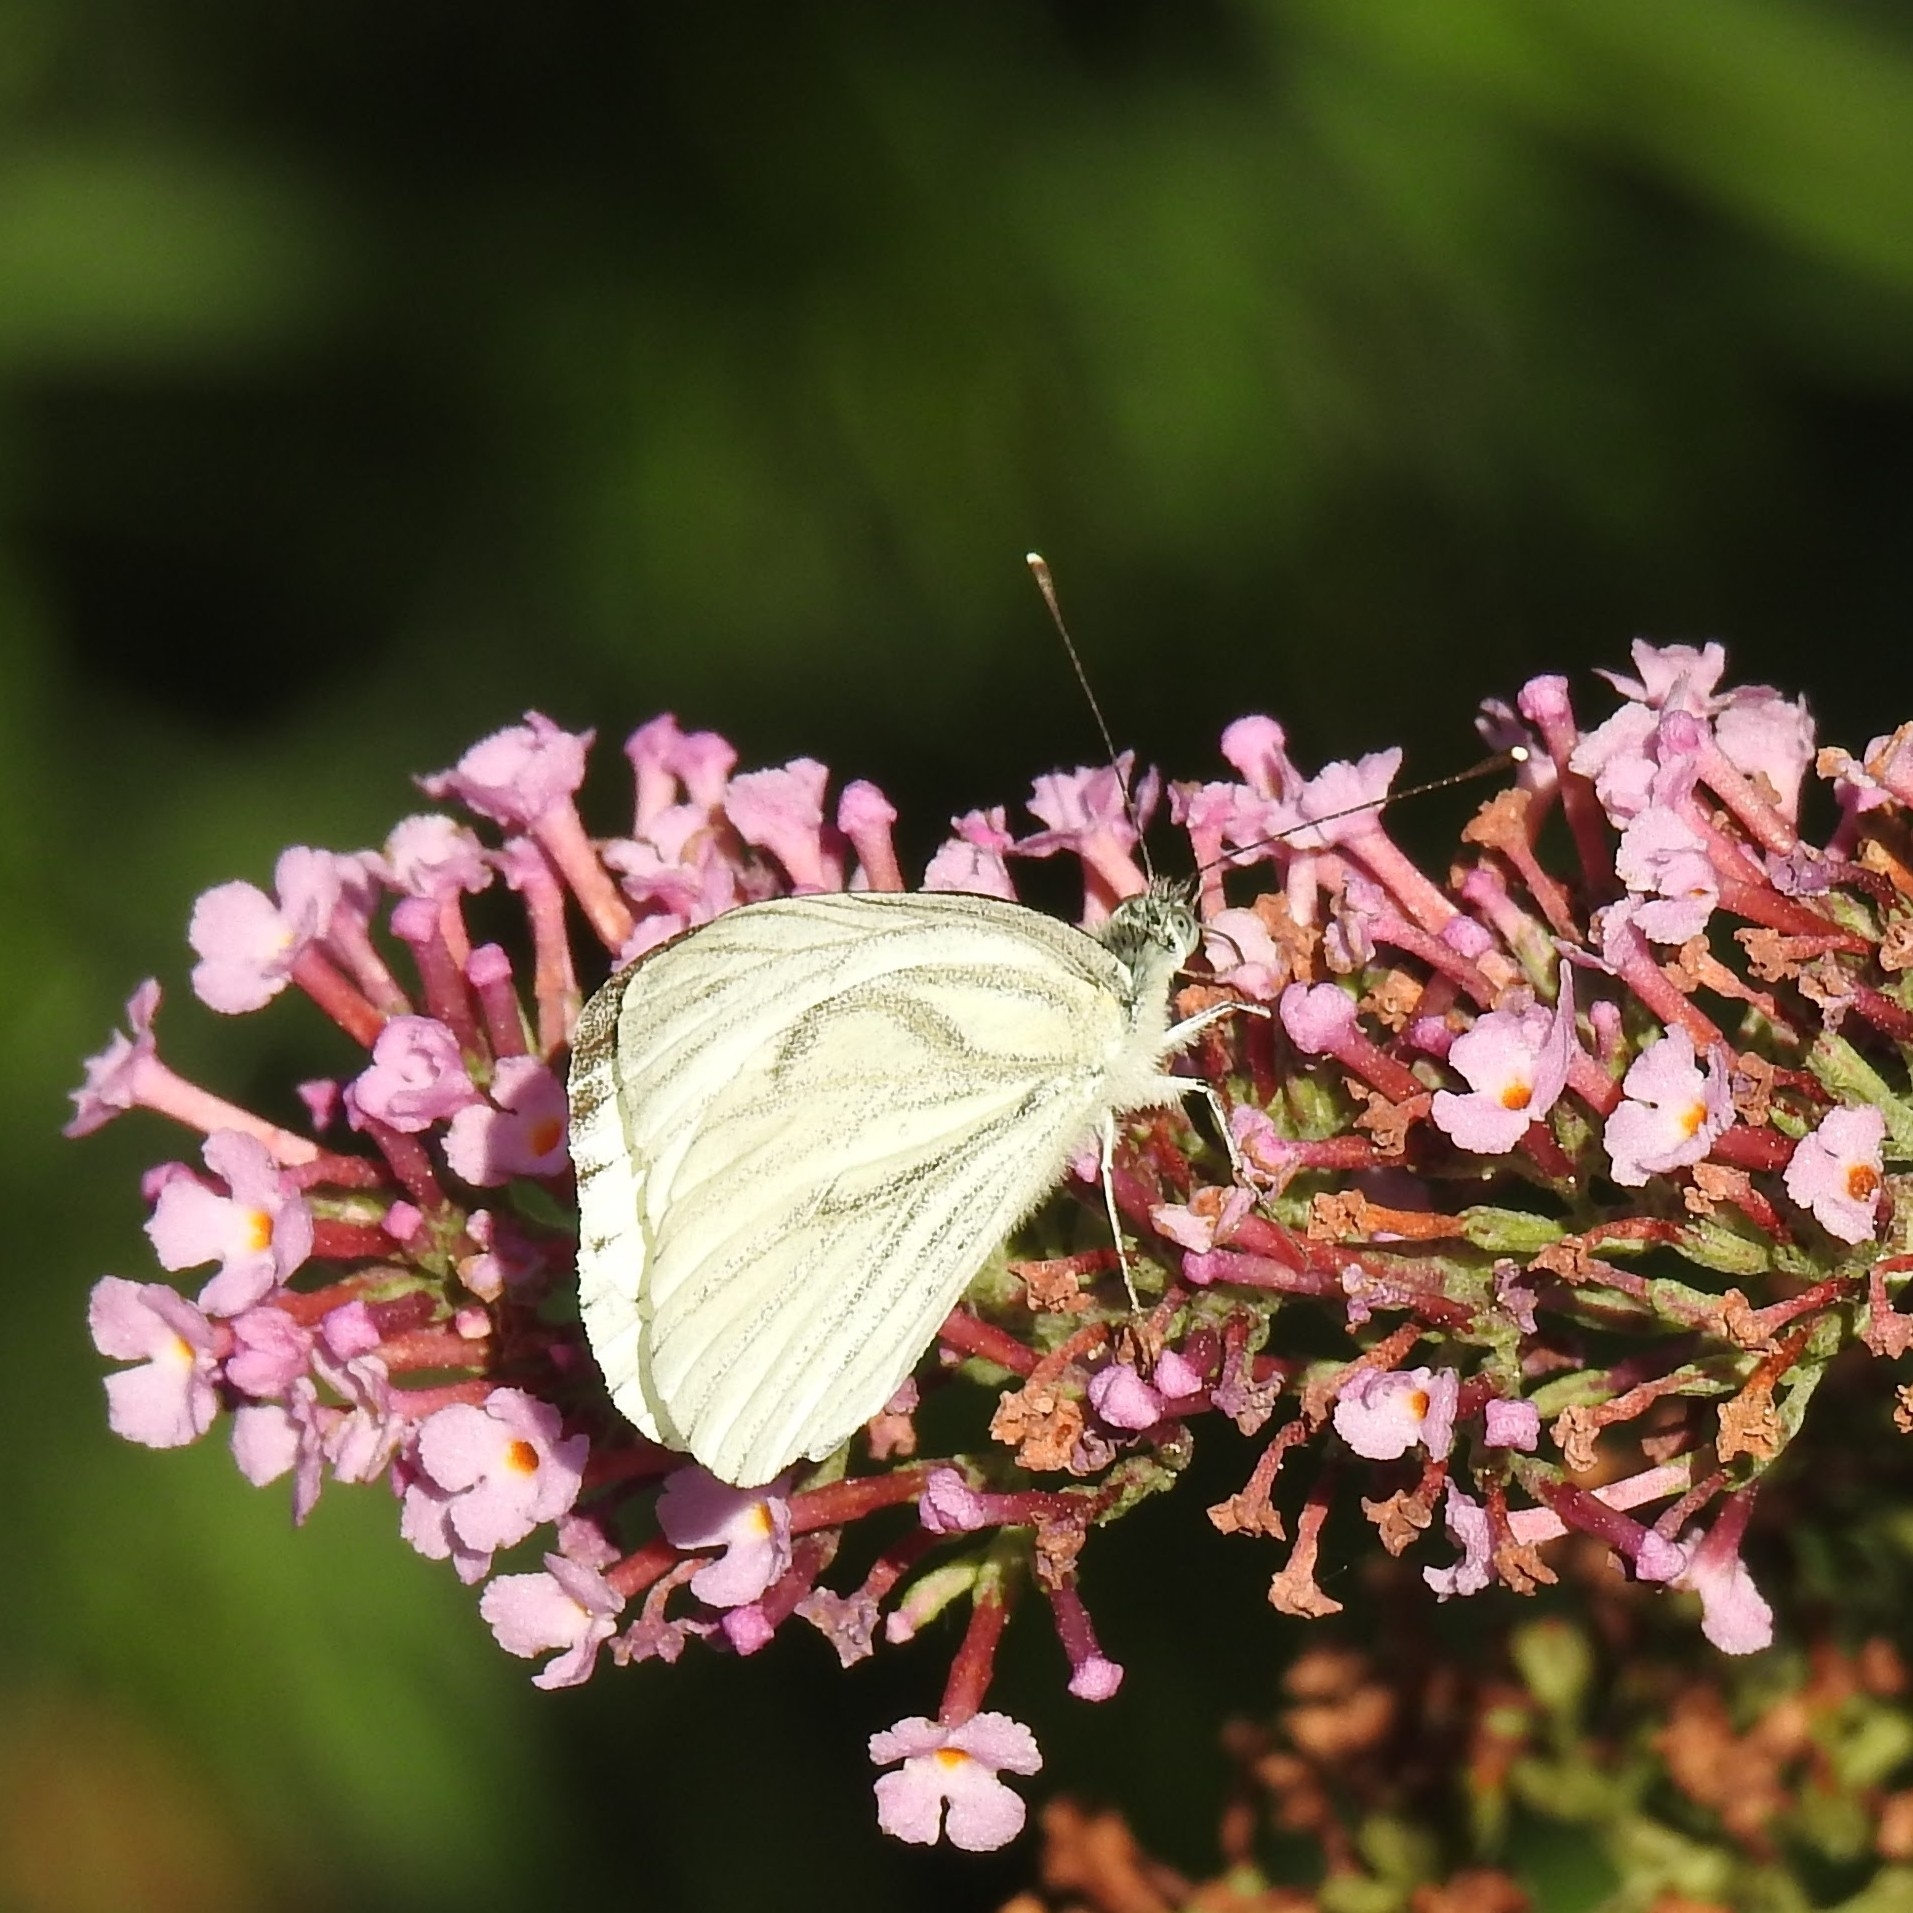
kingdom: Animalia
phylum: Arthropoda
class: Insecta
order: Lepidoptera
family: Pieridae
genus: Pieris
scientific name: Pieris napi
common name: Green-veined white
